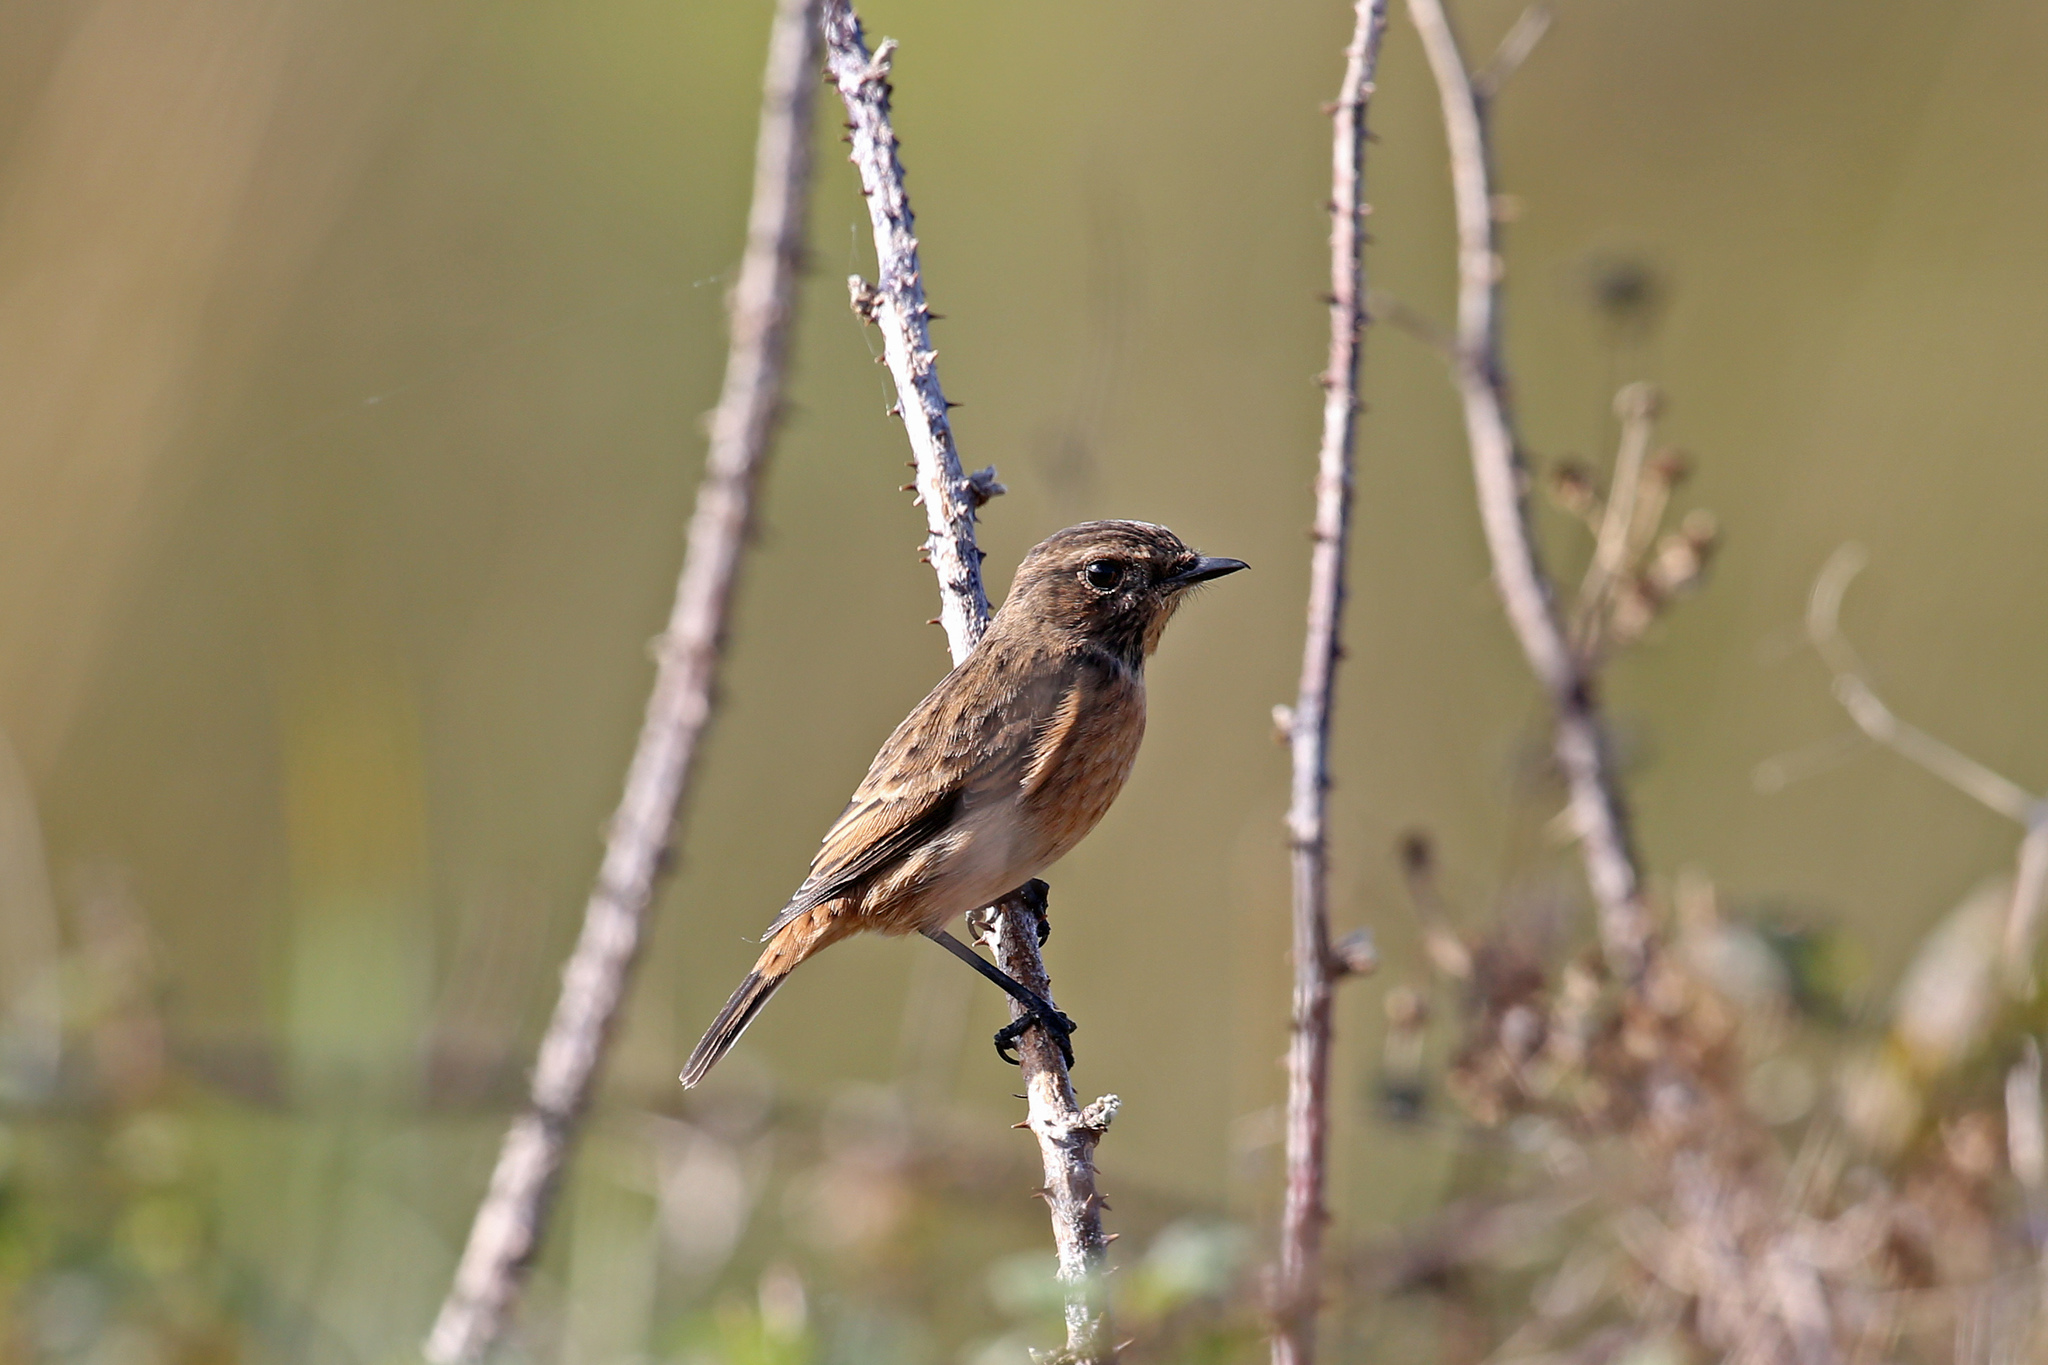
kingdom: Animalia
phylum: Chordata
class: Aves
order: Passeriformes
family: Muscicapidae
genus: Saxicola
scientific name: Saxicola rubicola
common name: European stonechat
